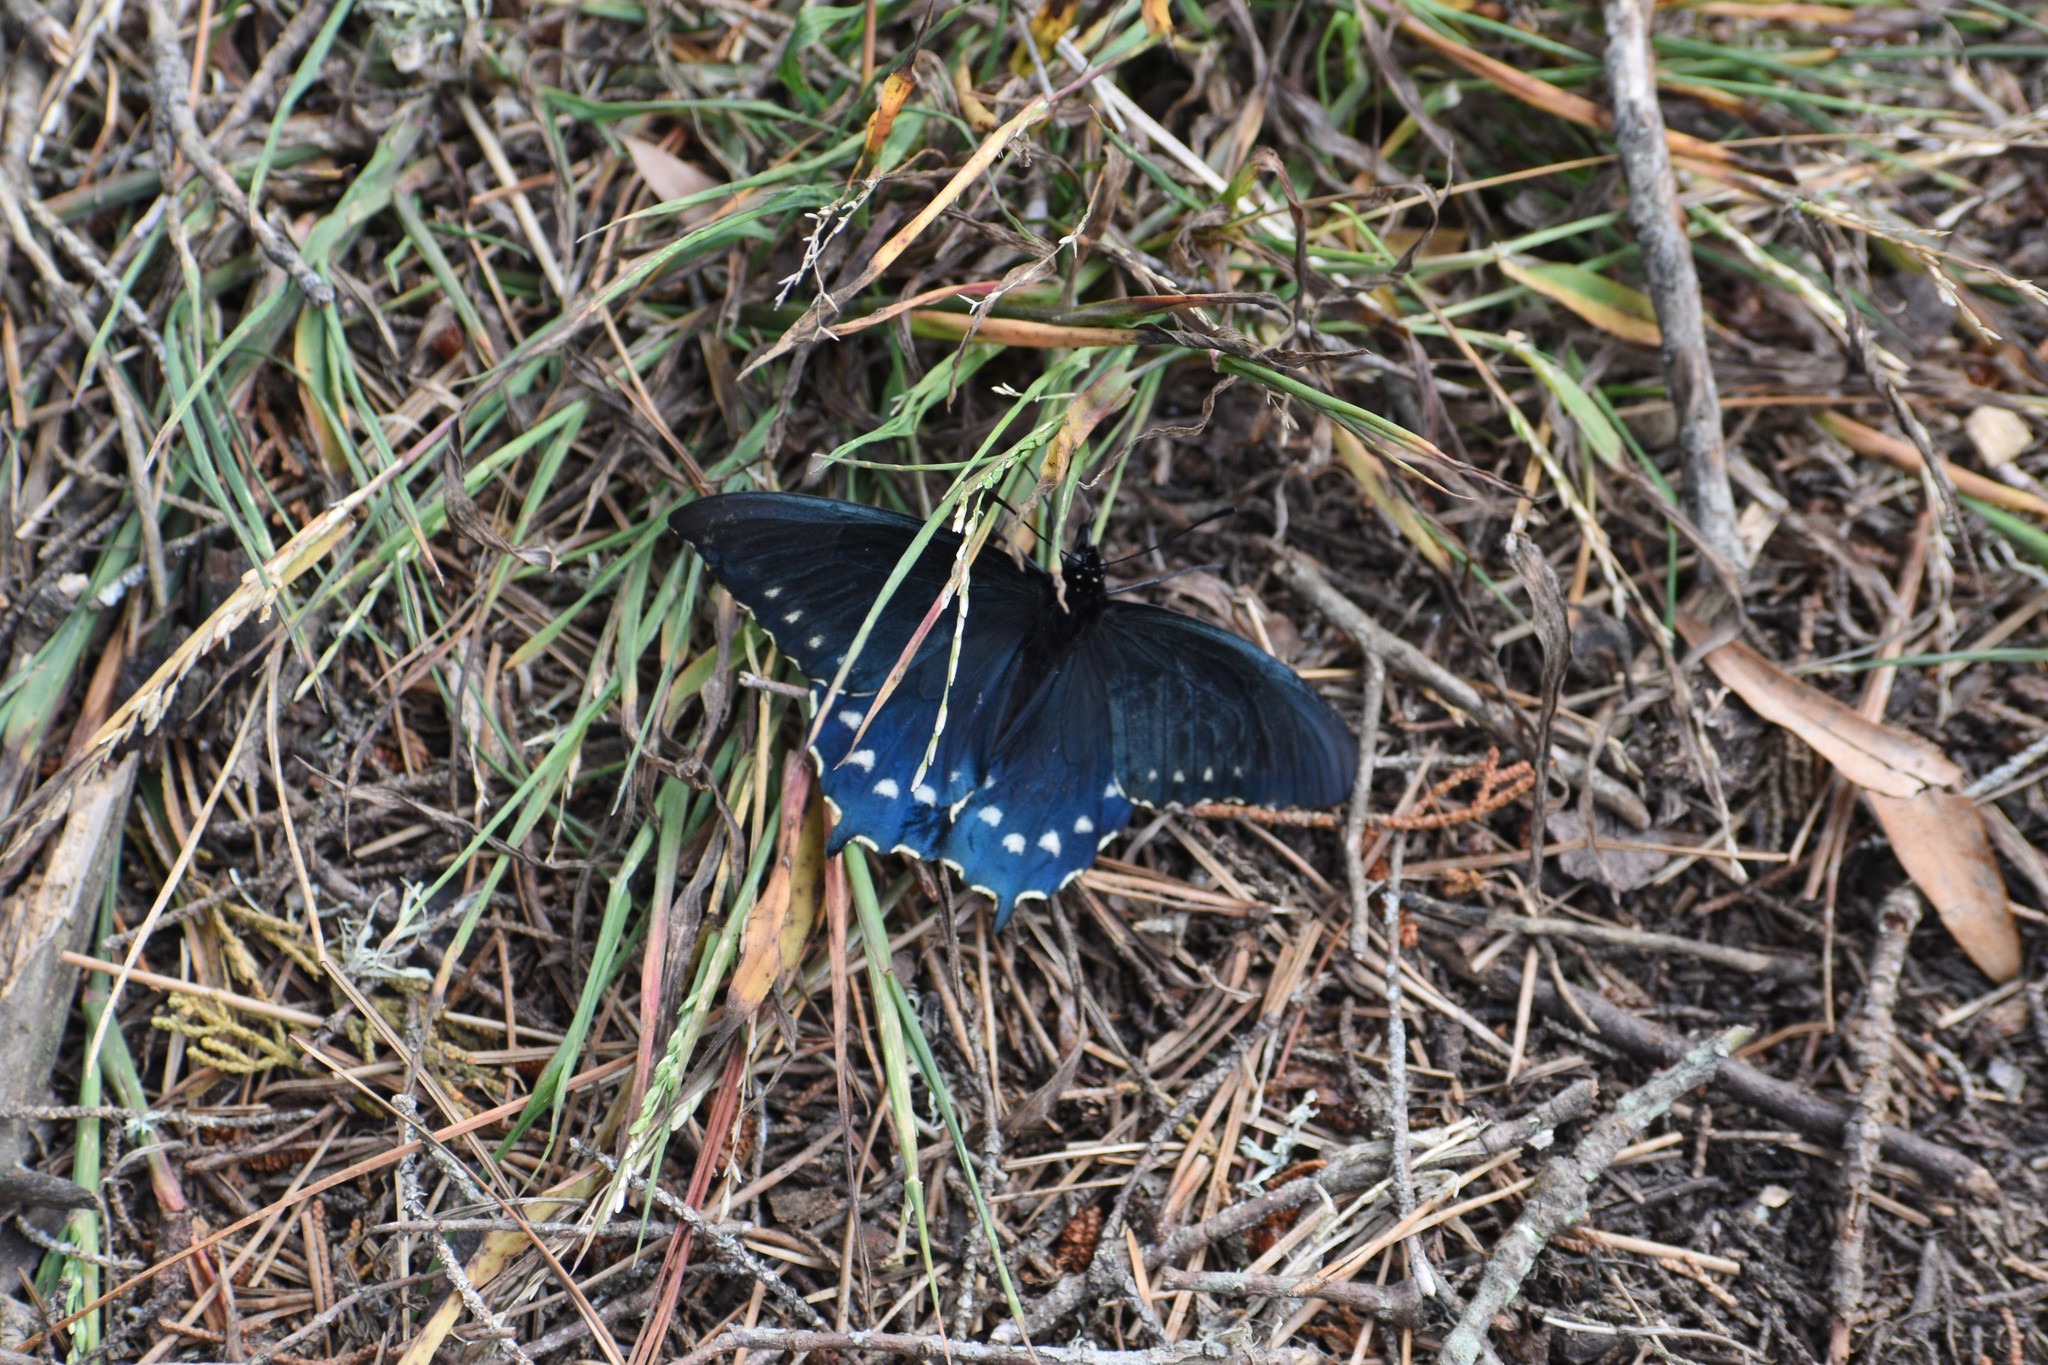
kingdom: Animalia
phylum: Arthropoda
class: Insecta
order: Lepidoptera
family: Papilionidae
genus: Battus
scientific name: Battus philenor
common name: Pipevine swallowtail
